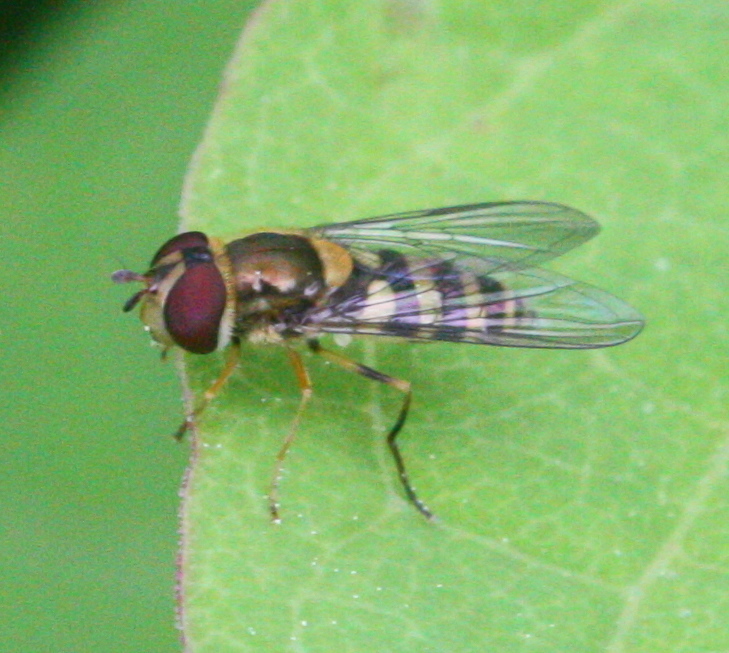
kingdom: Animalia
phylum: Arthropoda
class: Insecta
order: Diptera
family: Syrphidae
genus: Syrphus
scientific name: Syrphus rectus
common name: Yellow-legged flower fly
